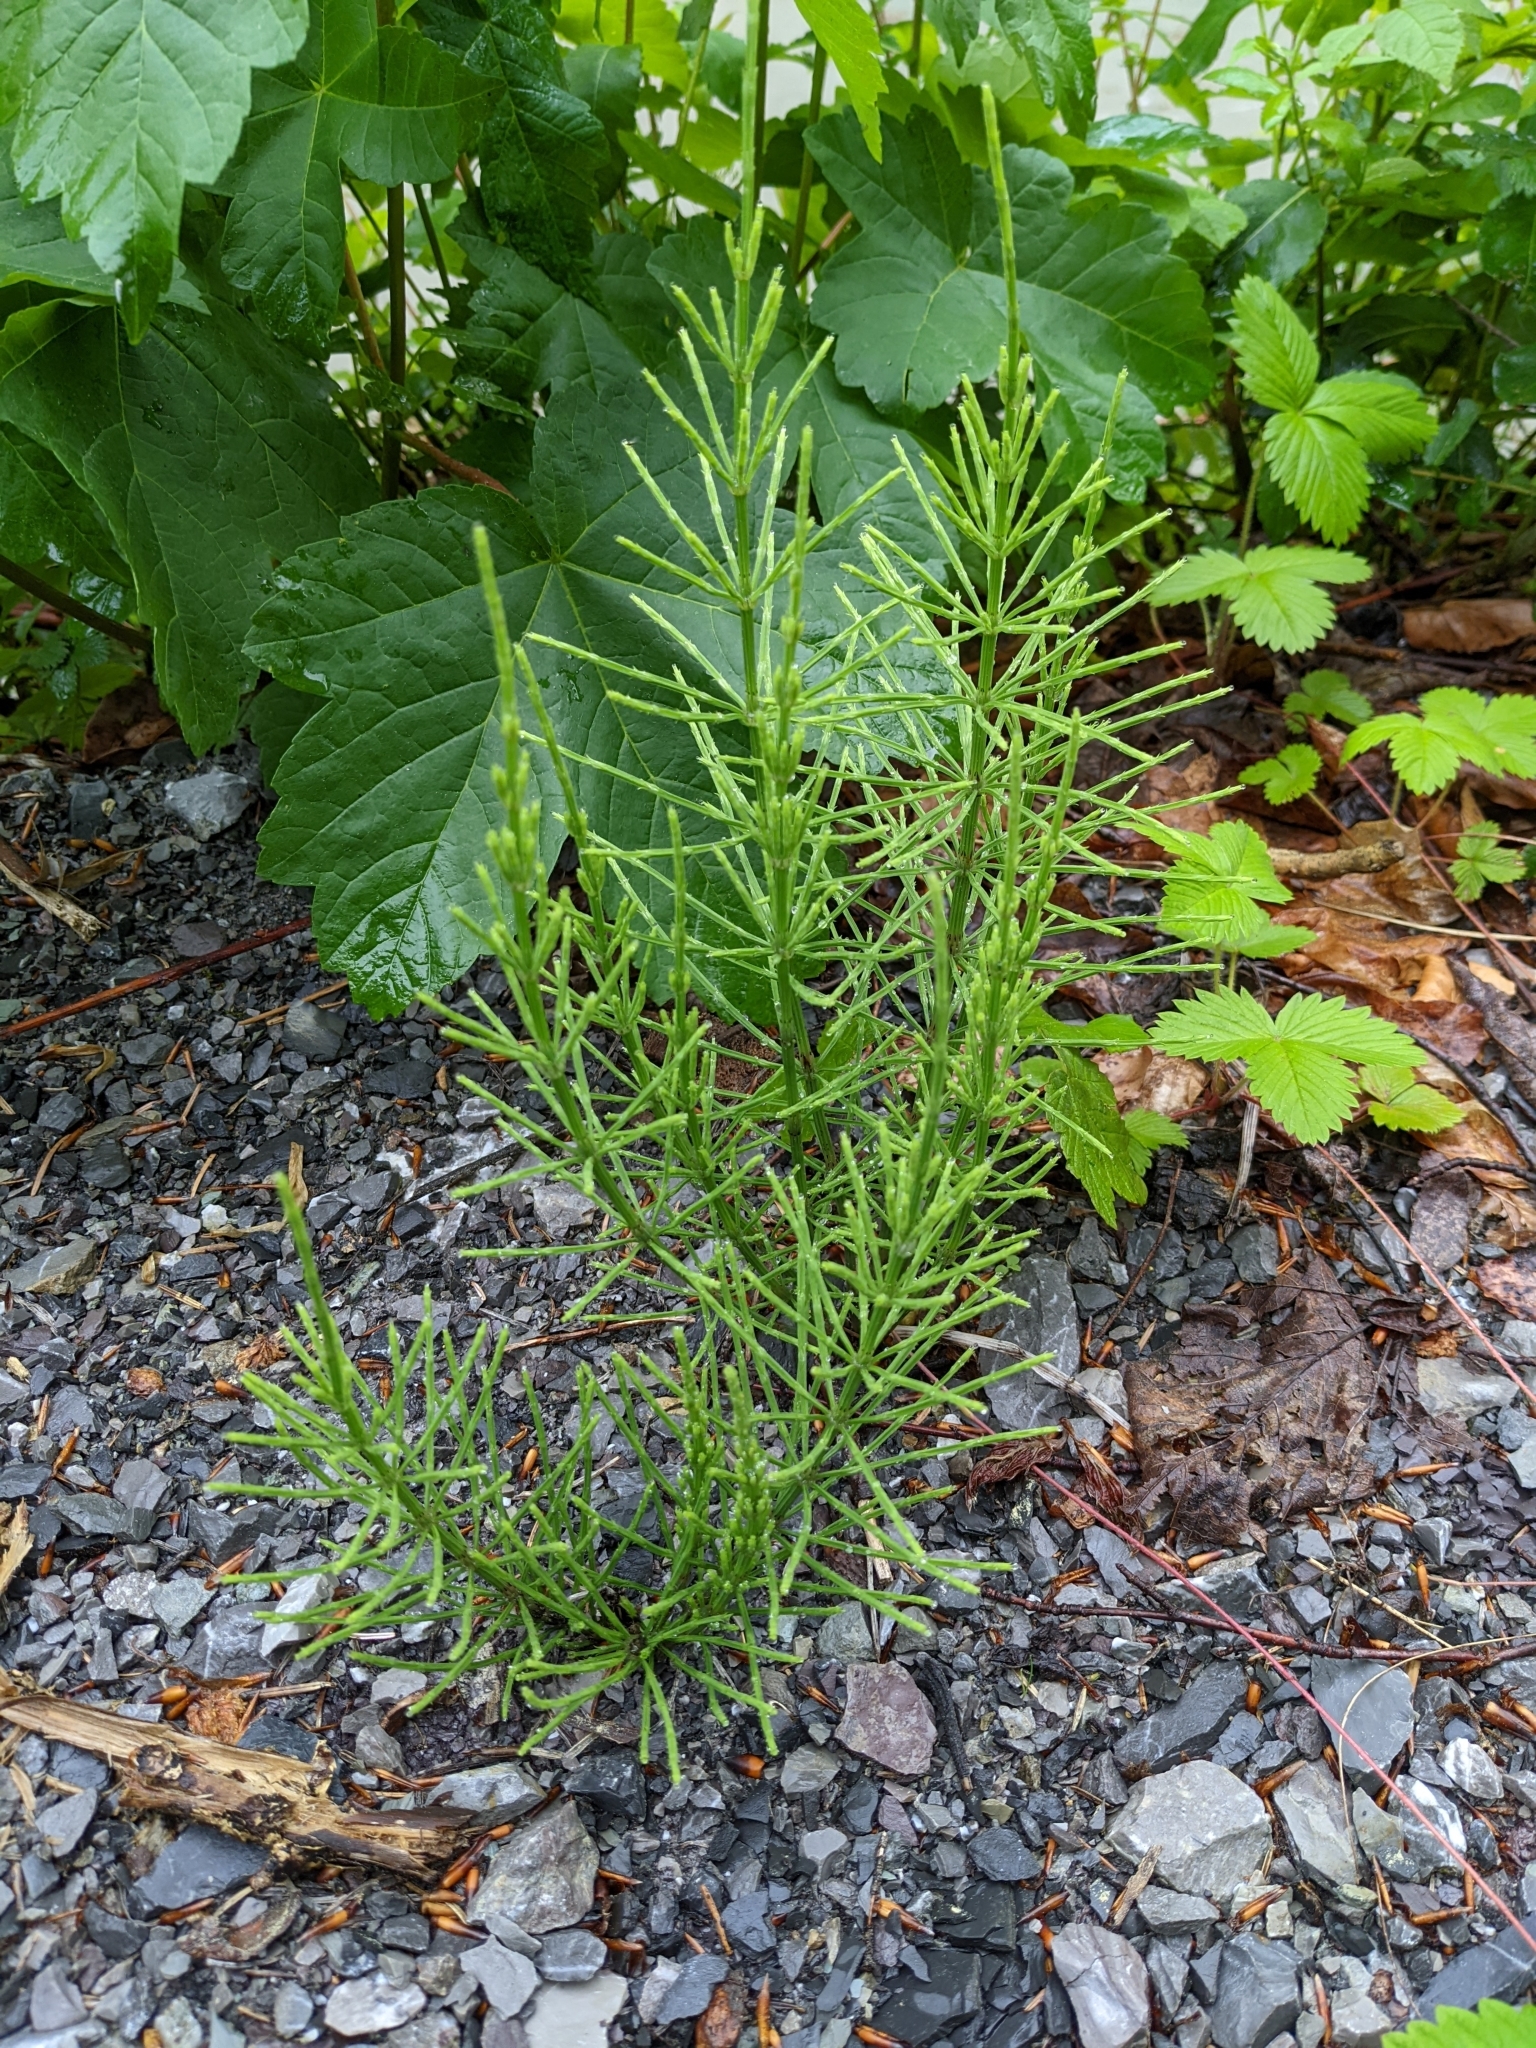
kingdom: Plantae
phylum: Tracheophyta
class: Polypodiopsida
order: Equisetales
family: Equisetaceae
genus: Equisetum
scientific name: Equisetum arvense
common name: Field horsetail
